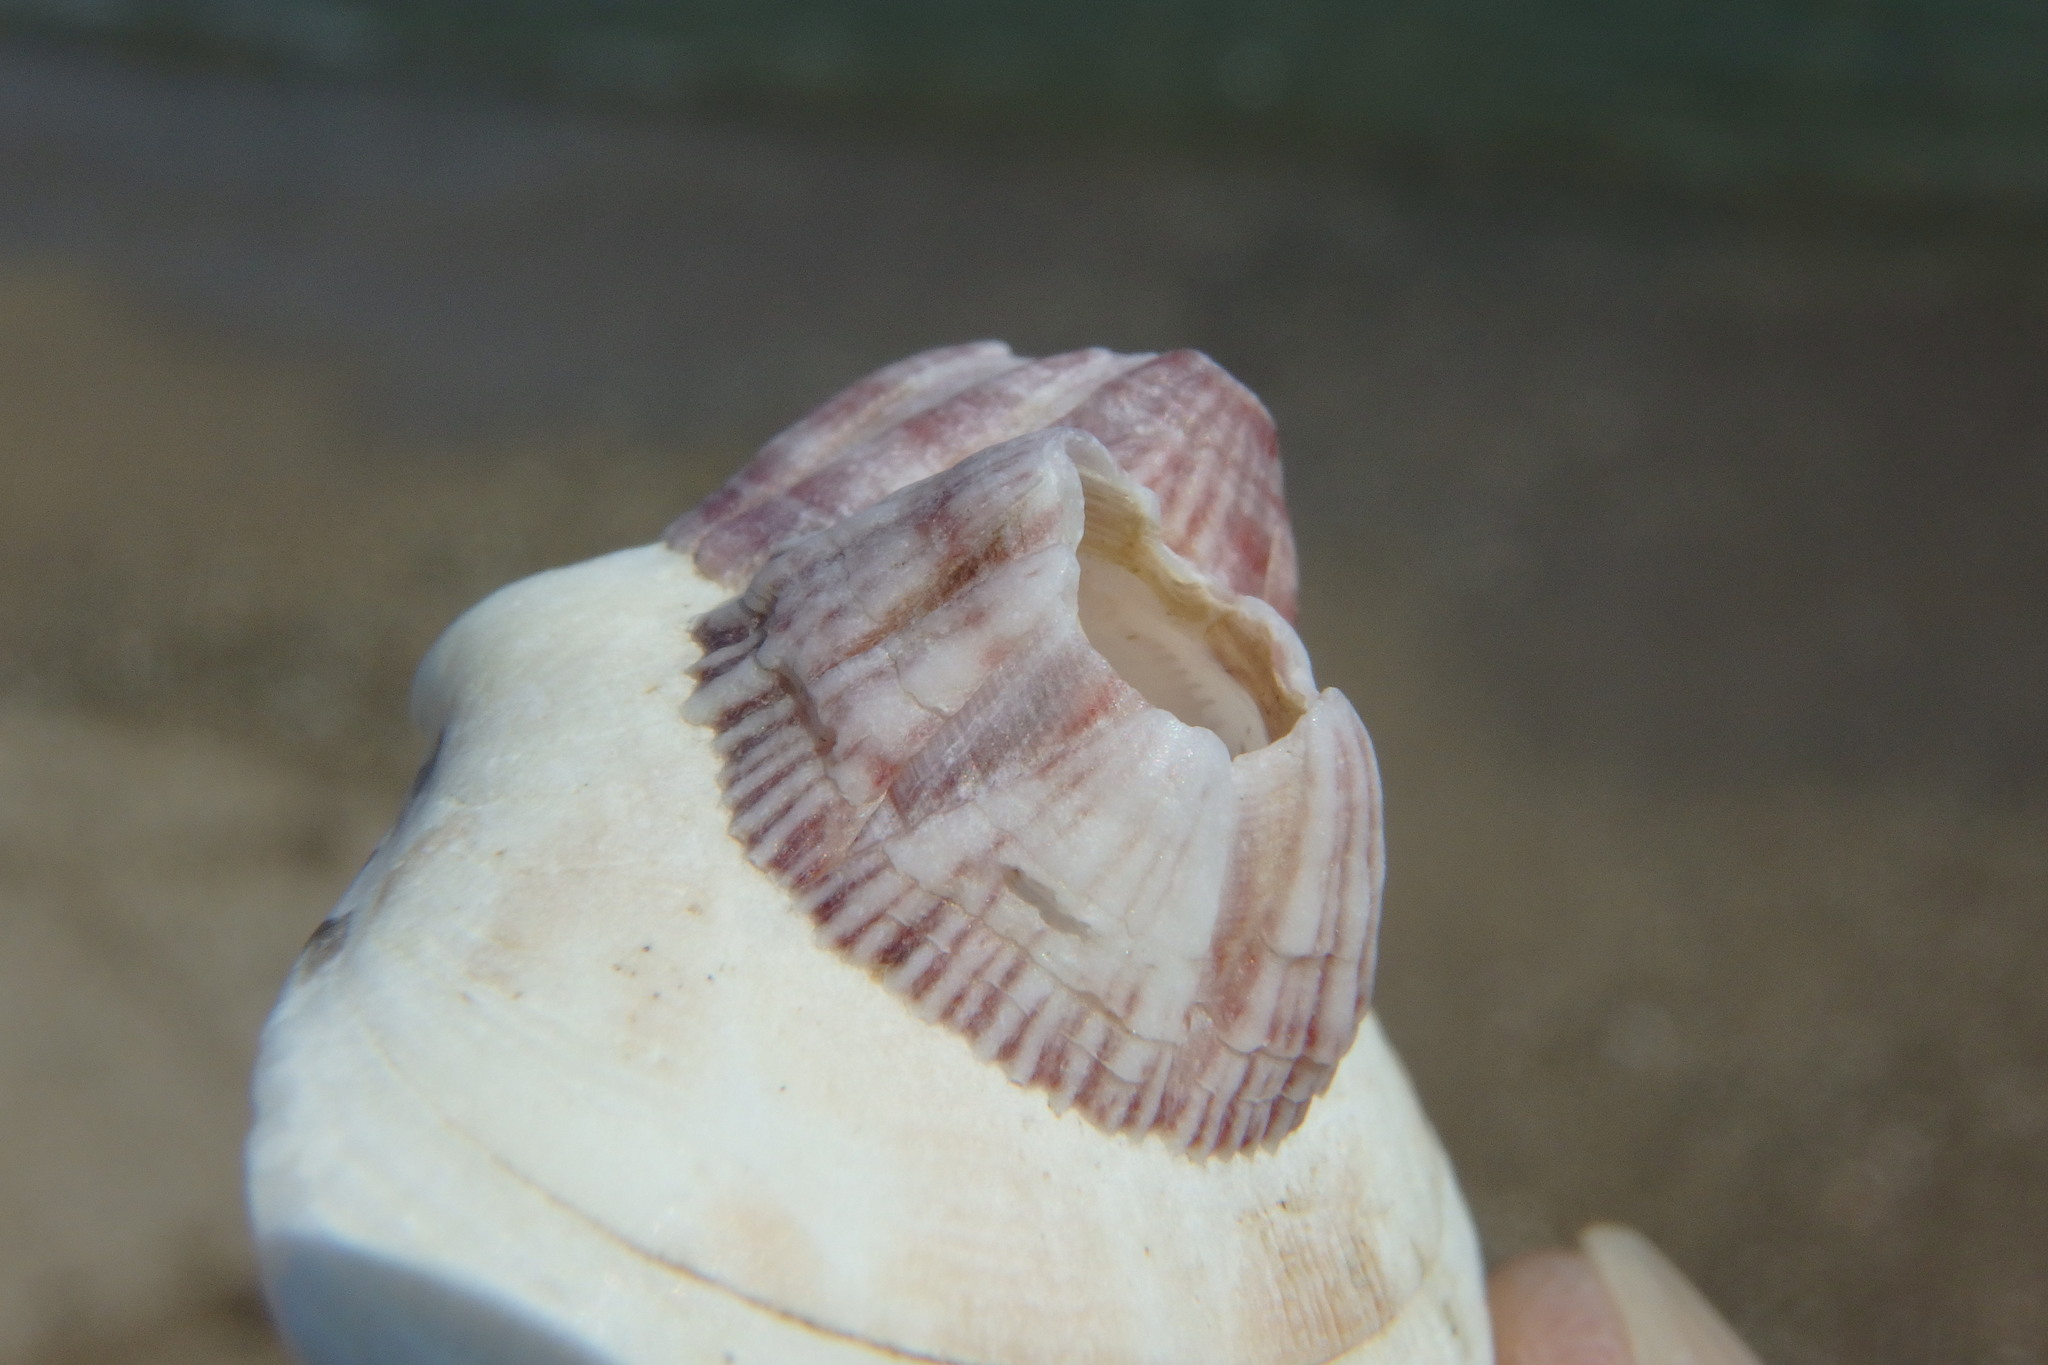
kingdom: Animalia
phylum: Arthropoda
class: Maxillopoda
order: Sessilia
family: Balanidae
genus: Balanus
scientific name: Balanus trigonus
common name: Triangle barnacle
